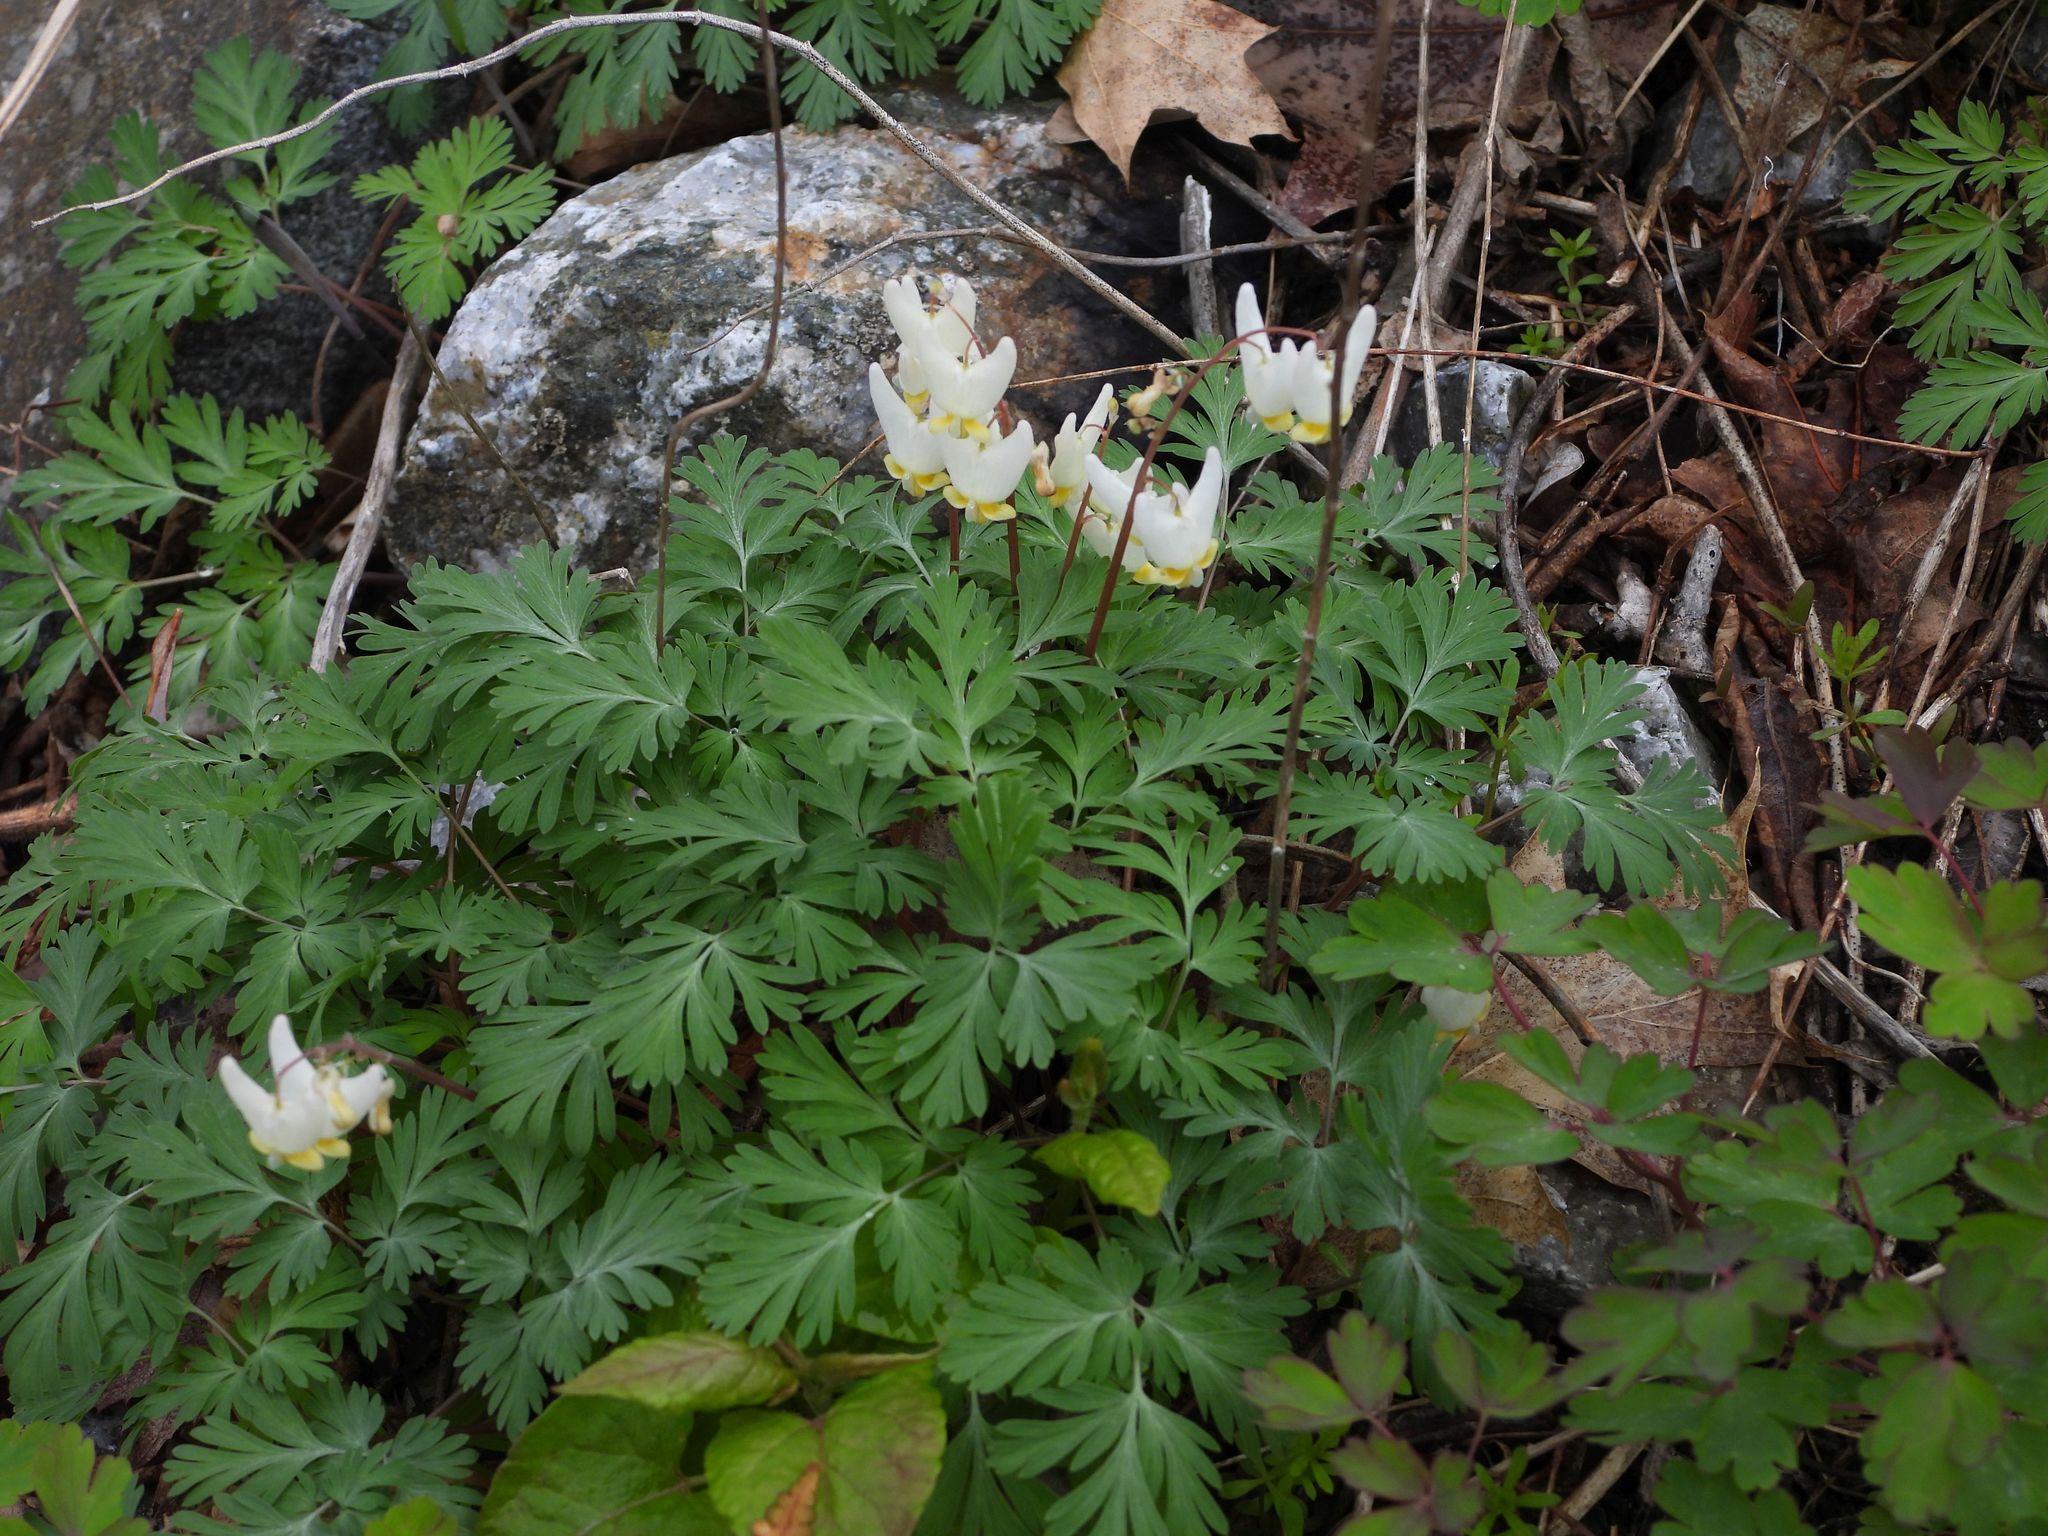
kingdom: Plantae
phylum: Tracheophyta
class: Magnoliopsida
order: Ranunculales
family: Papaveraceae
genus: Dicentra
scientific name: Dicentra cucullaria
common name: Dutchman's breeches
